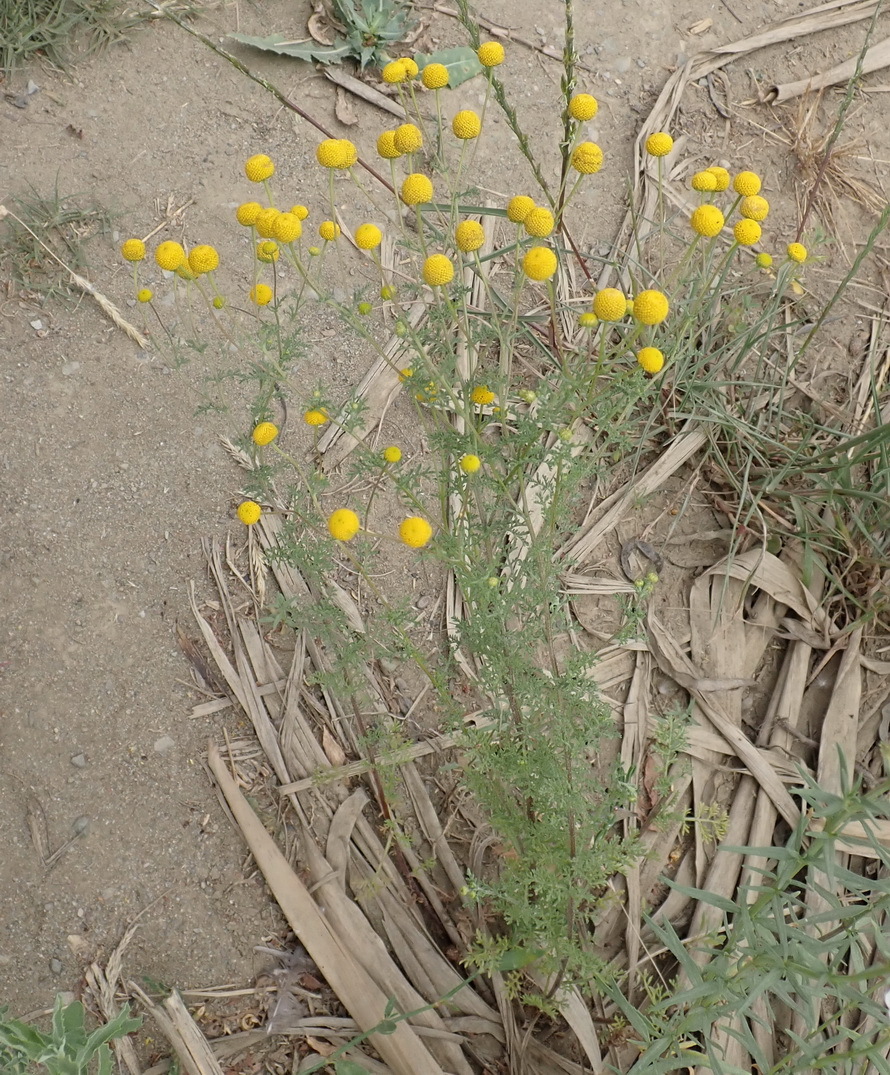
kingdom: Plantae
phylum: Tracheophyta
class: Magnoliopsida
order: Asterales
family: Asteraceae
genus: Oncosiphon
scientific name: Oncosiphon pilulifer
